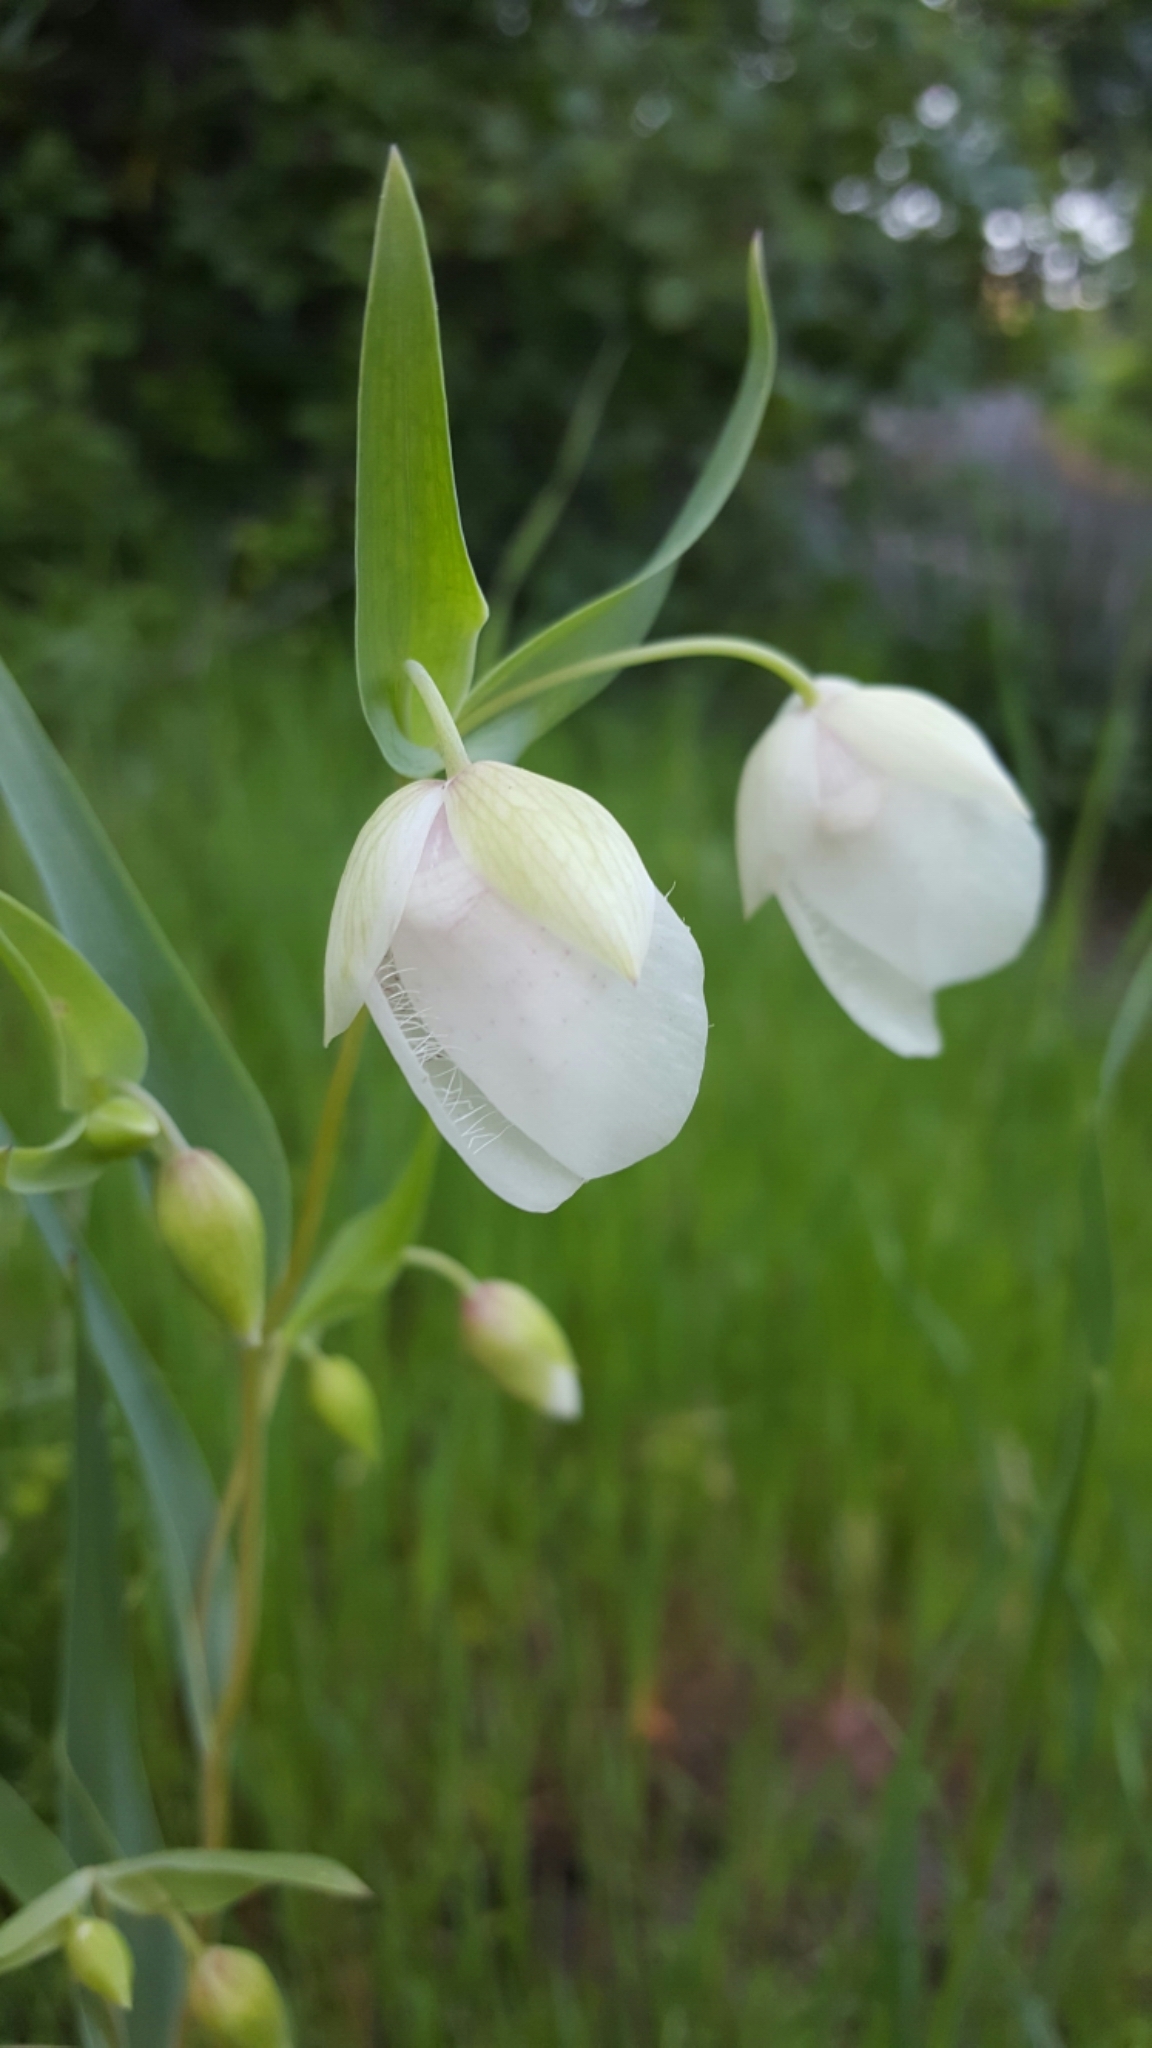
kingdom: Plantae
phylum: Tracheophyta
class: Liliopsida
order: Liliales
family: Liliaceae
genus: Calochortus
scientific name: Calochortus albus
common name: Fairy-lantern
